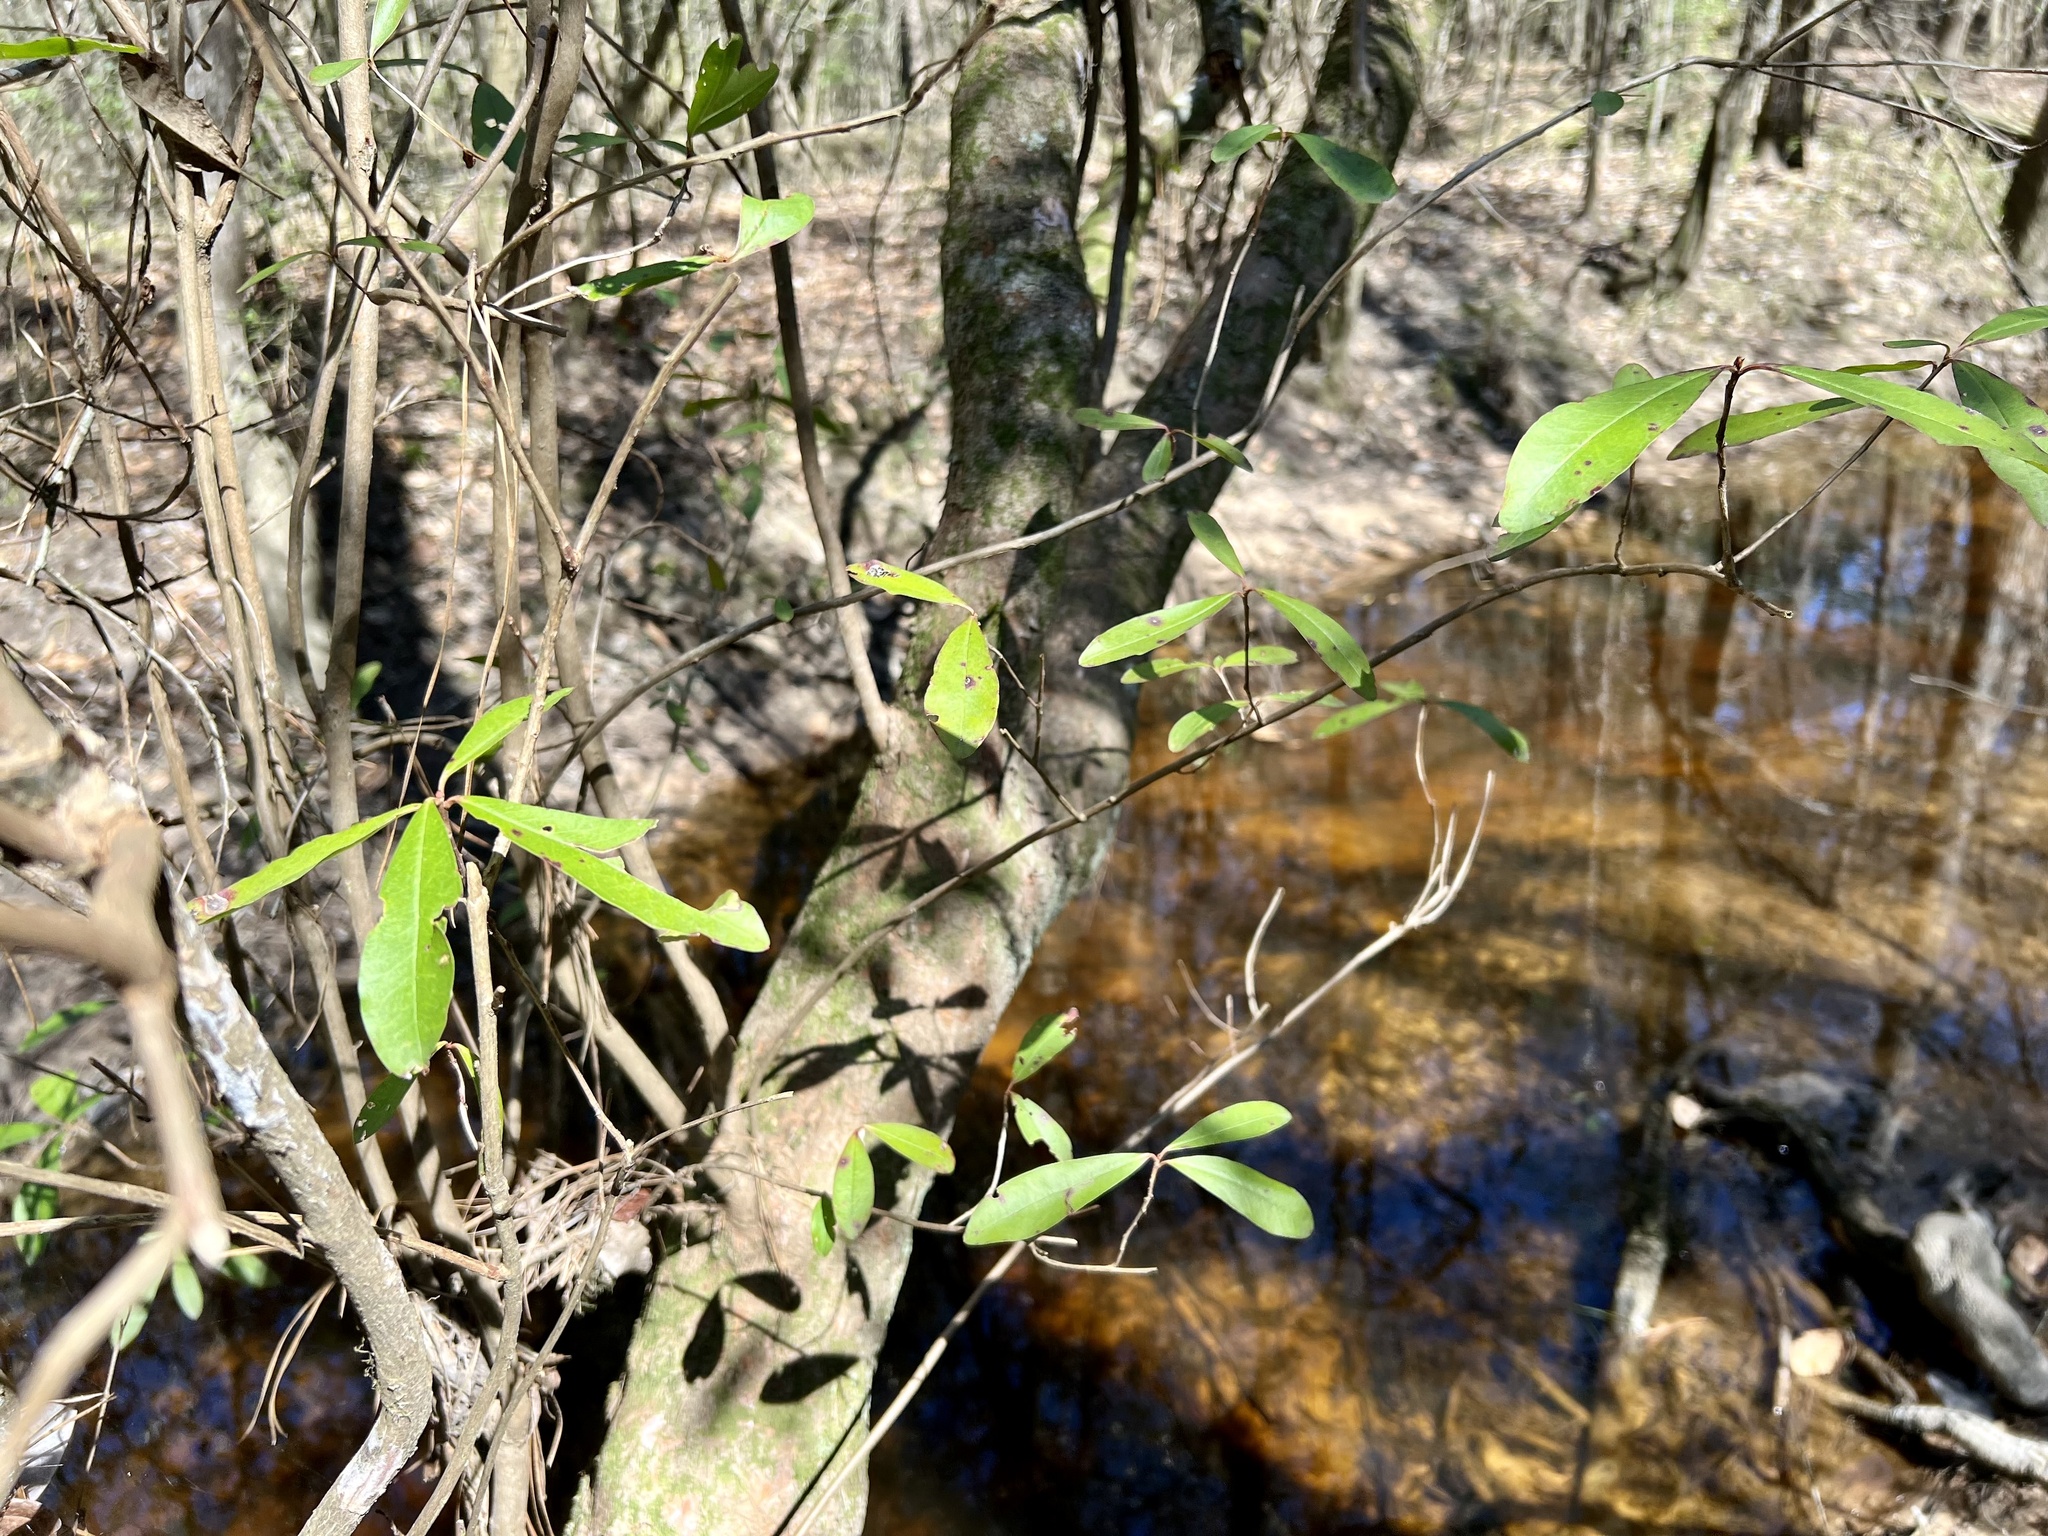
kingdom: Plantae
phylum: Tracheophyta
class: Magnoliopsida
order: Ericales
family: Cyrillaceae
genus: Cyrilla
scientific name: Cyrilla racemiflora
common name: Black titi
